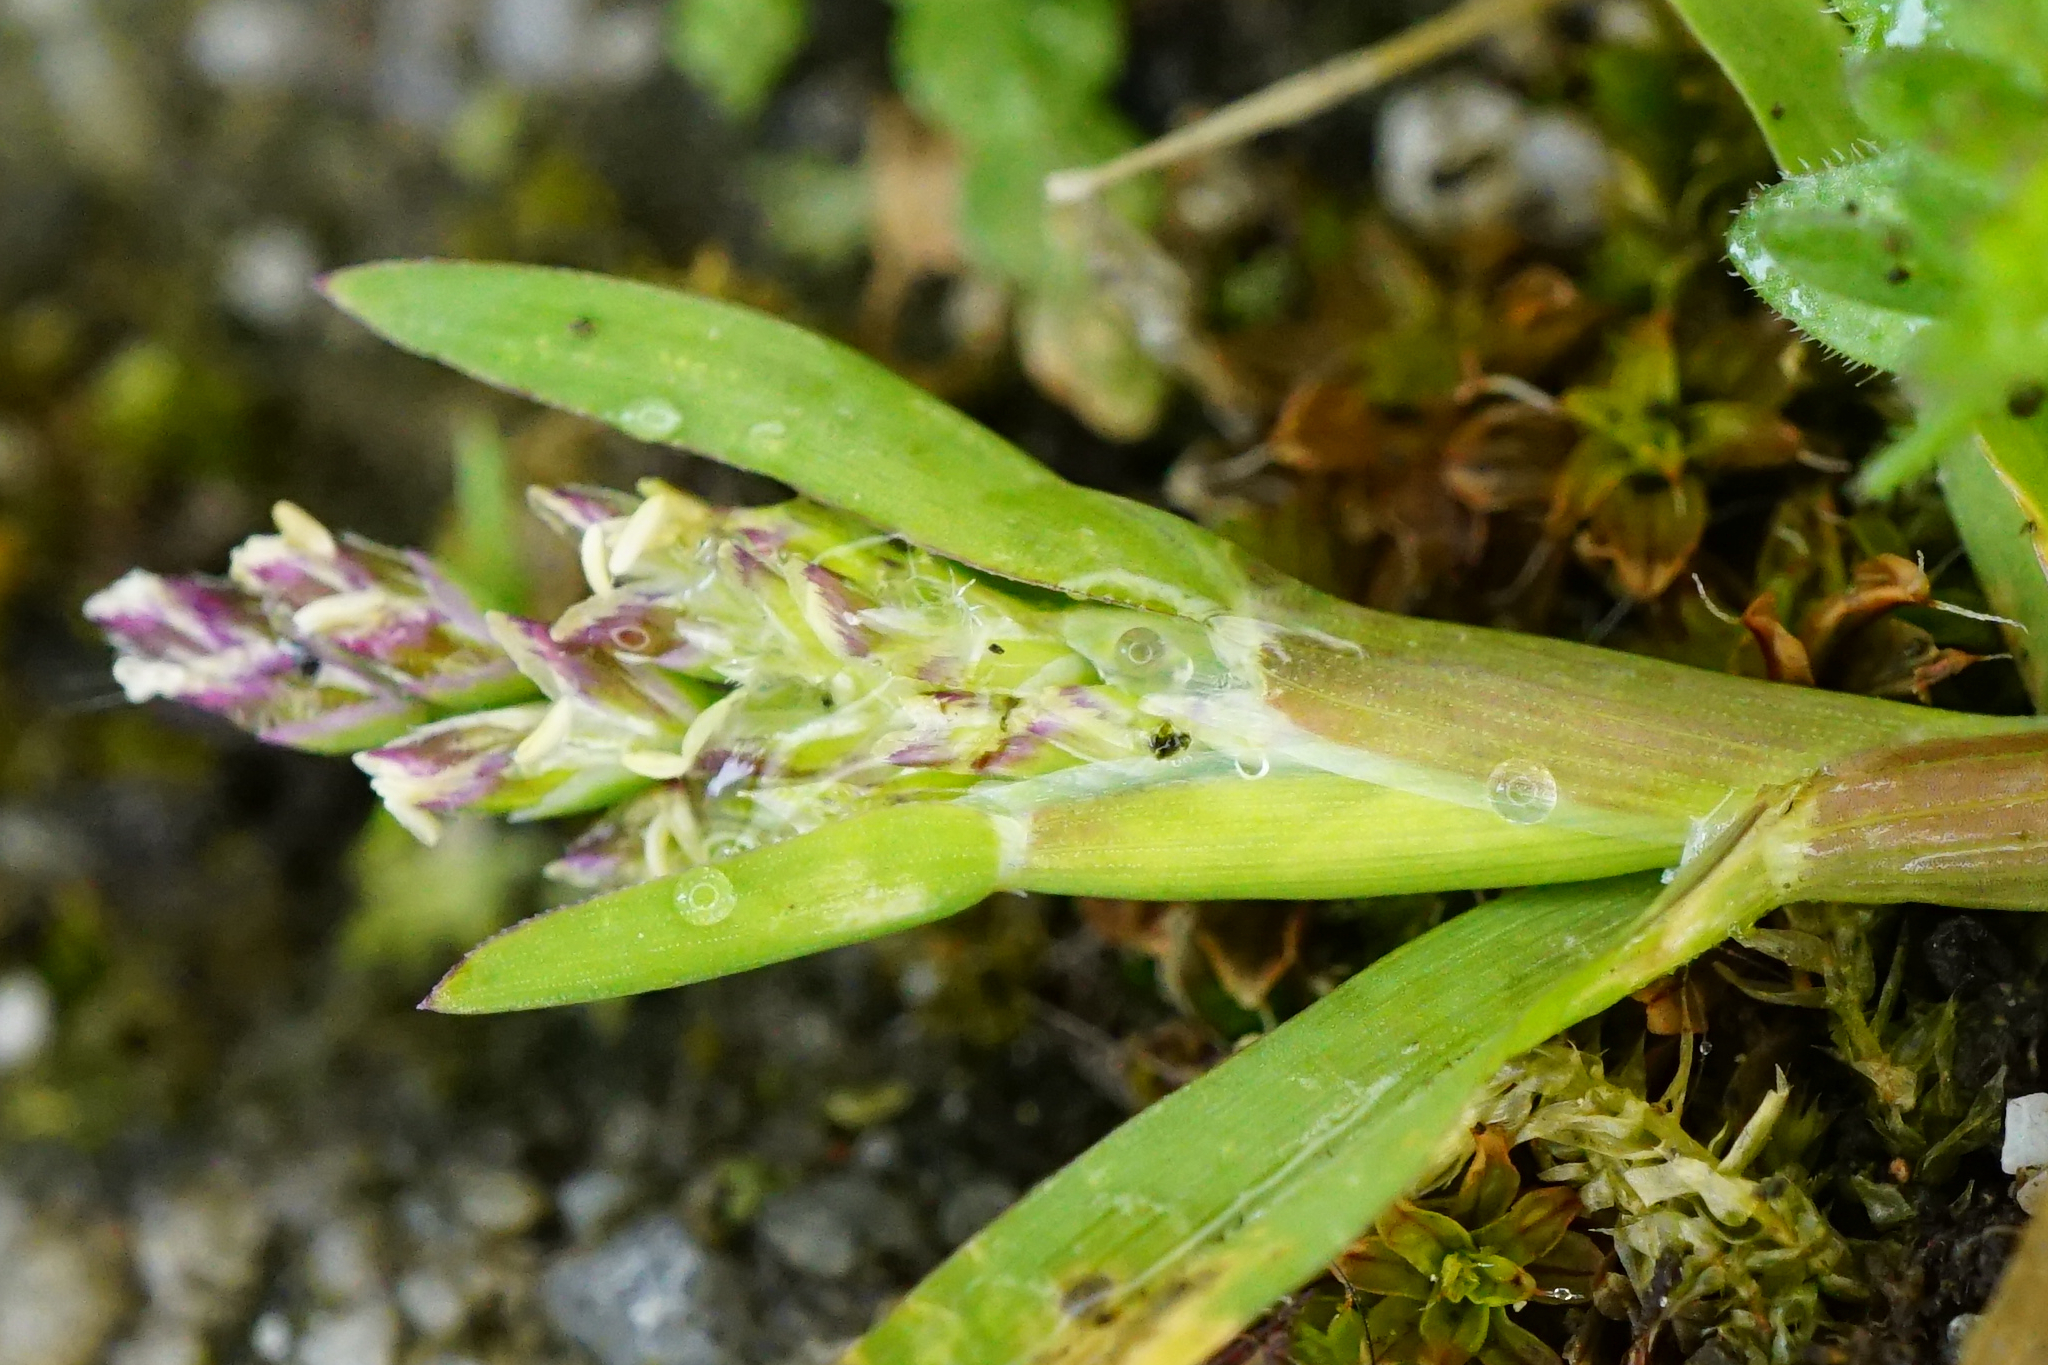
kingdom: Plantae
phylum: Tracheophyta
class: Liliopsida
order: Poales
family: Poaceae
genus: Poa
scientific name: Poa annua
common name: Annual bluegrass
